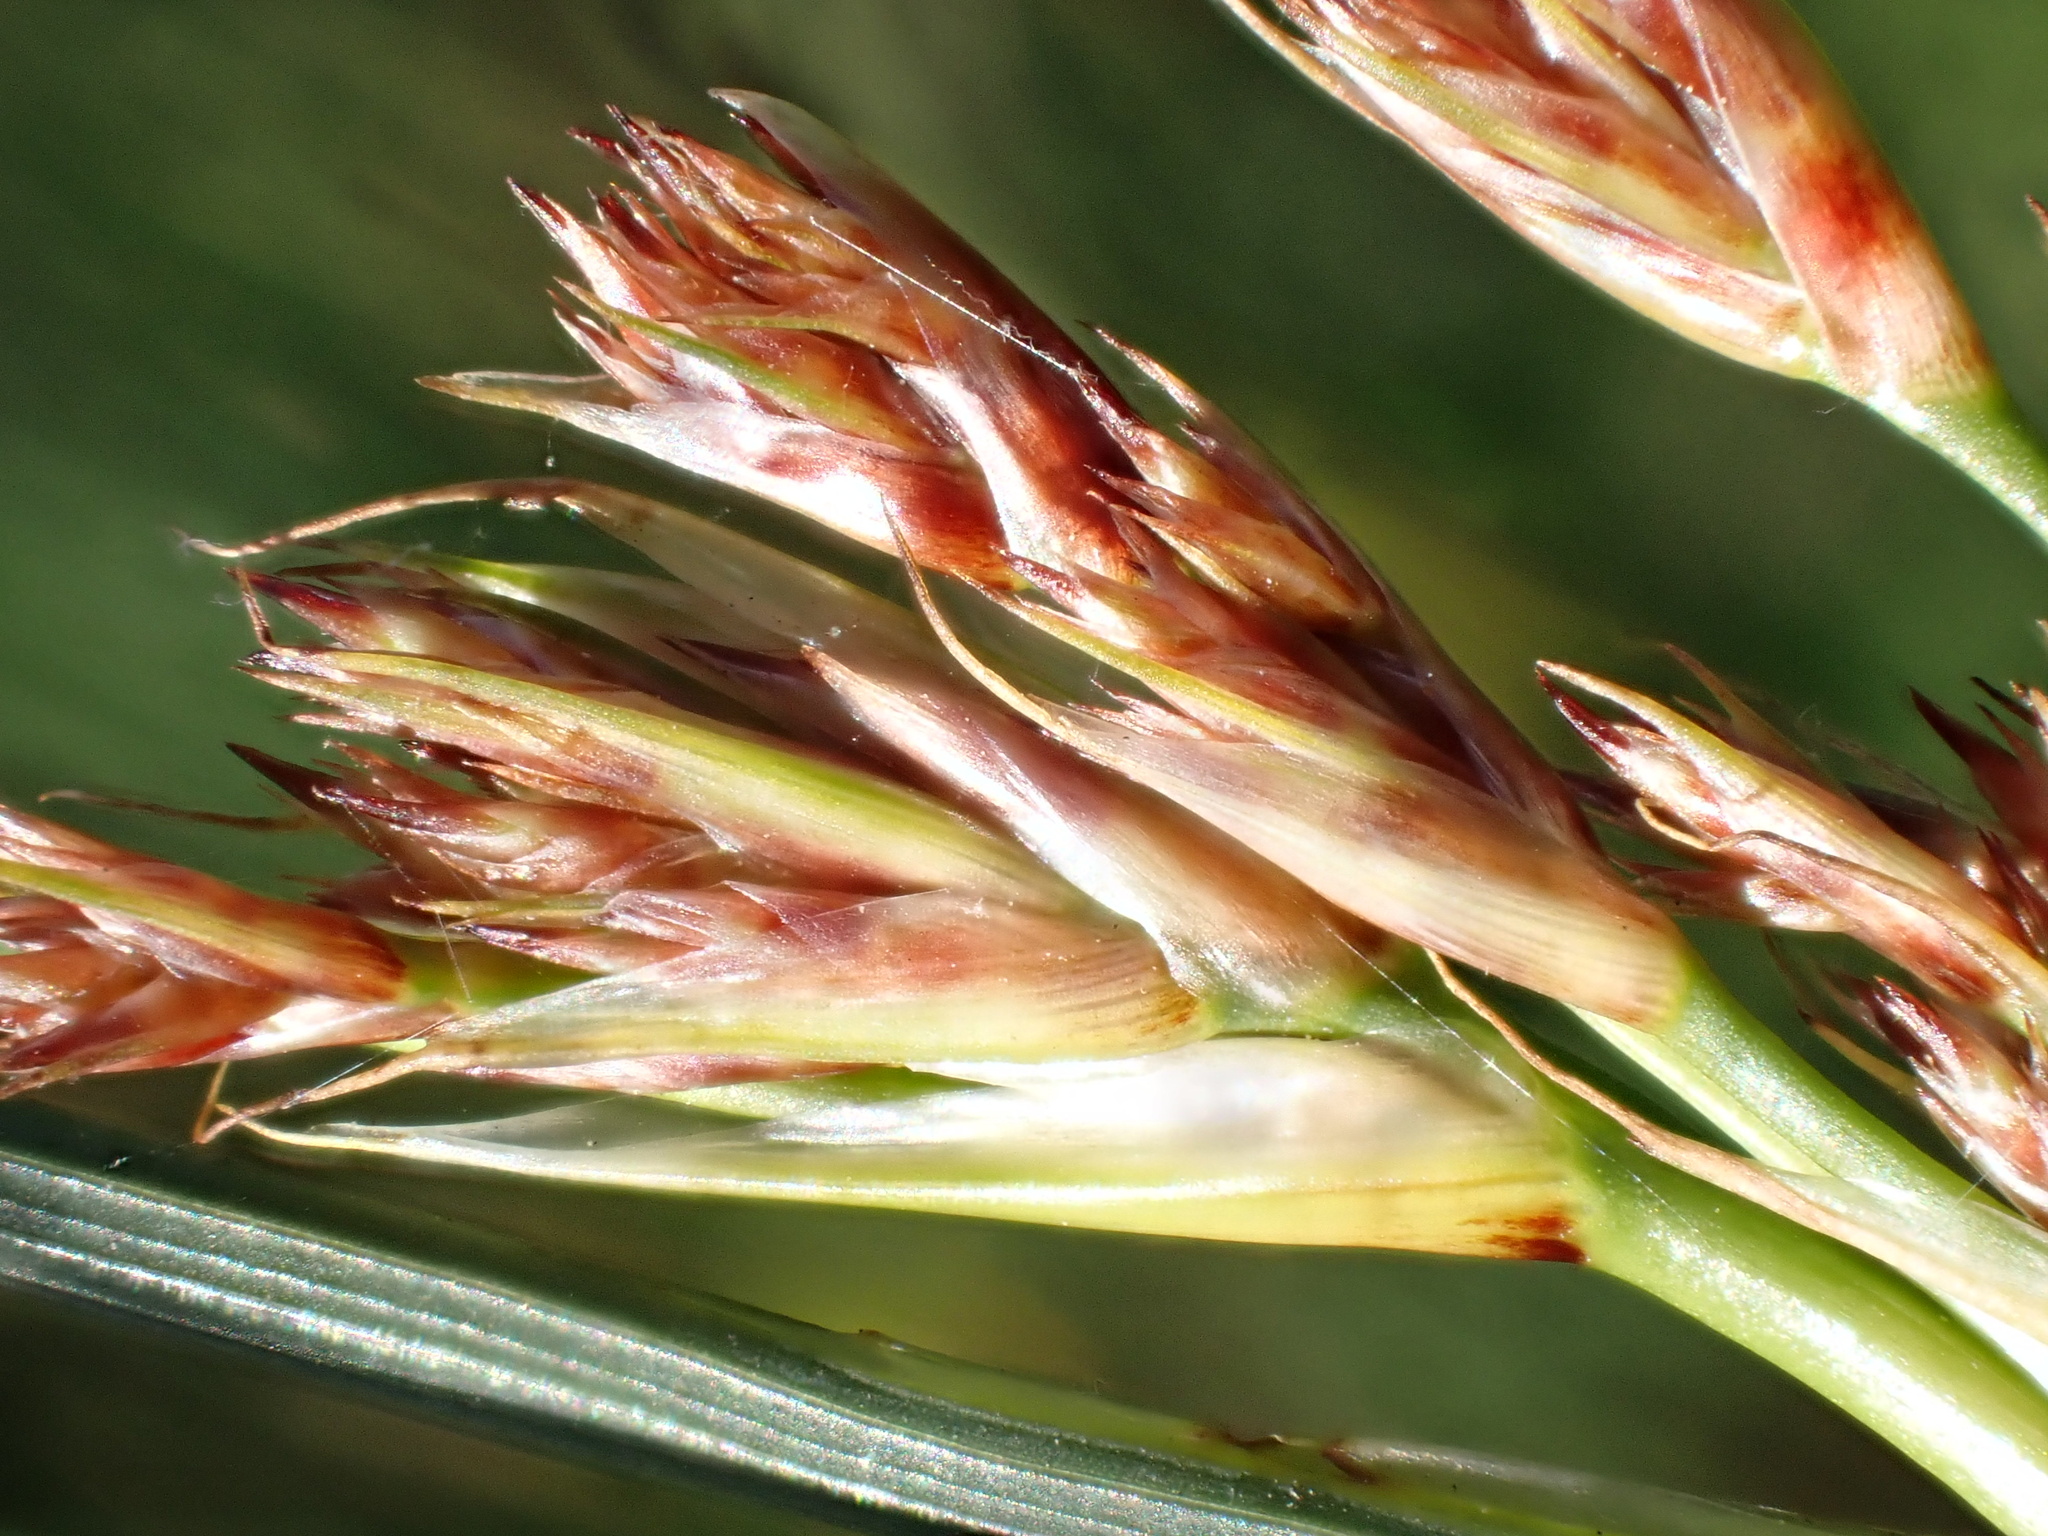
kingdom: Plantae
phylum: Tracheophyta
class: Liliopsida
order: Poales
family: Juncaceae
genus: Juncus
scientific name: Juncus inflexus
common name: Hard rush
